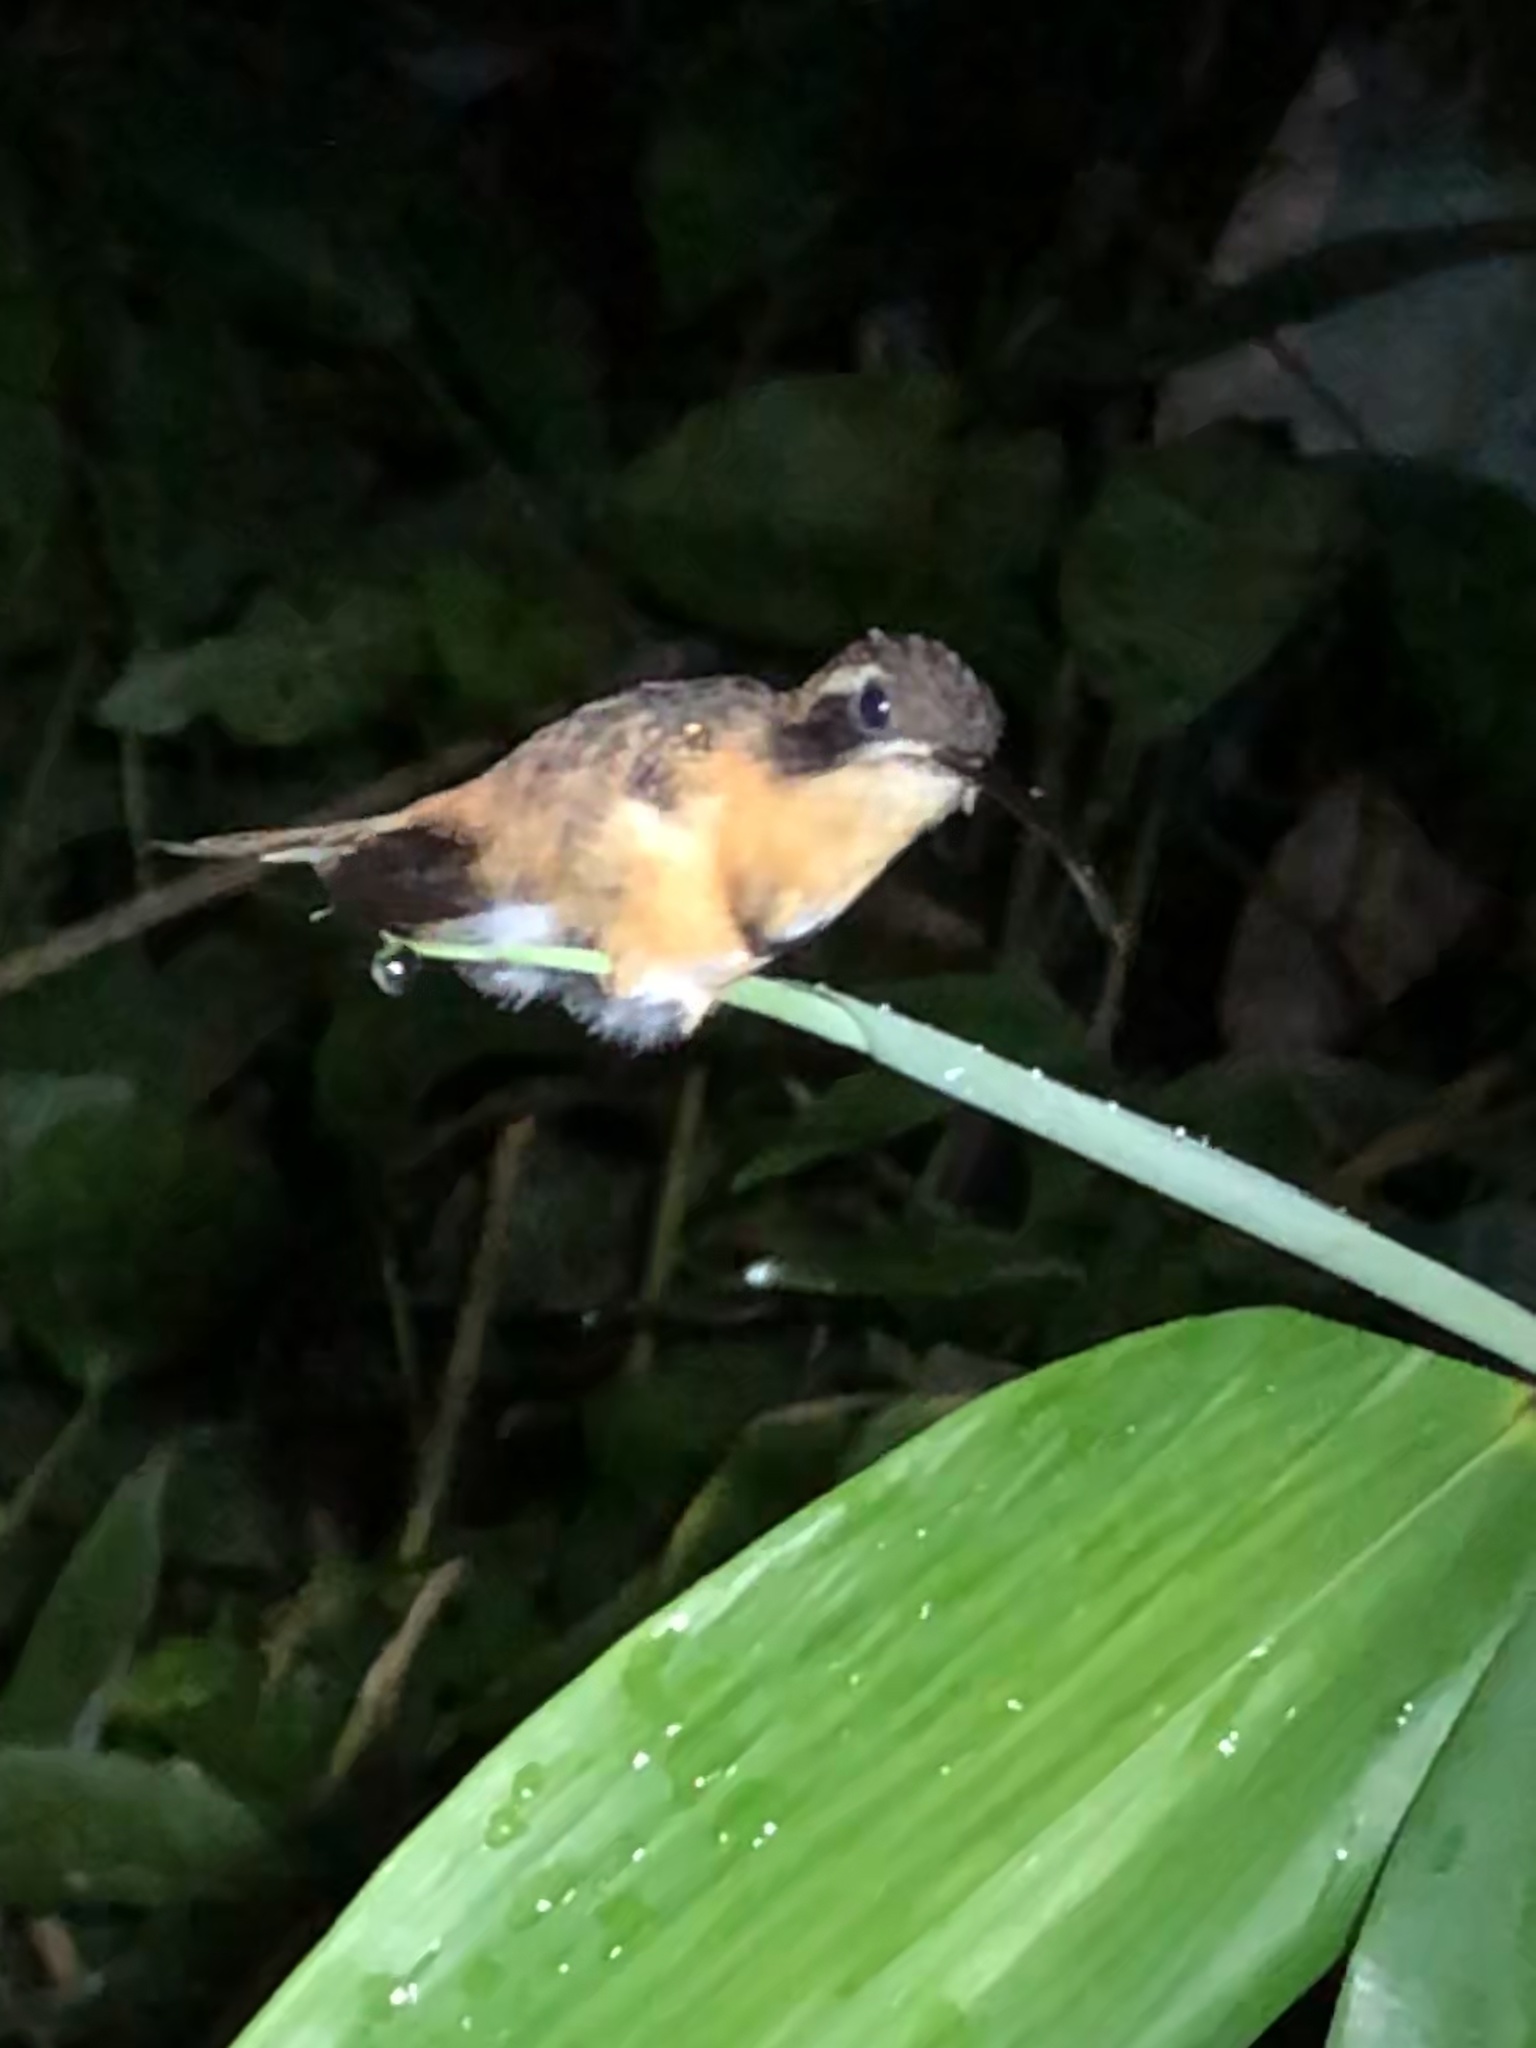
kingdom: Animalia
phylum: Chordata
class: Aves
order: Apodiformes
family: Trochilidae
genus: Phaethornis
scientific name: Phaethornis stuarti
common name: White-browed hermit
